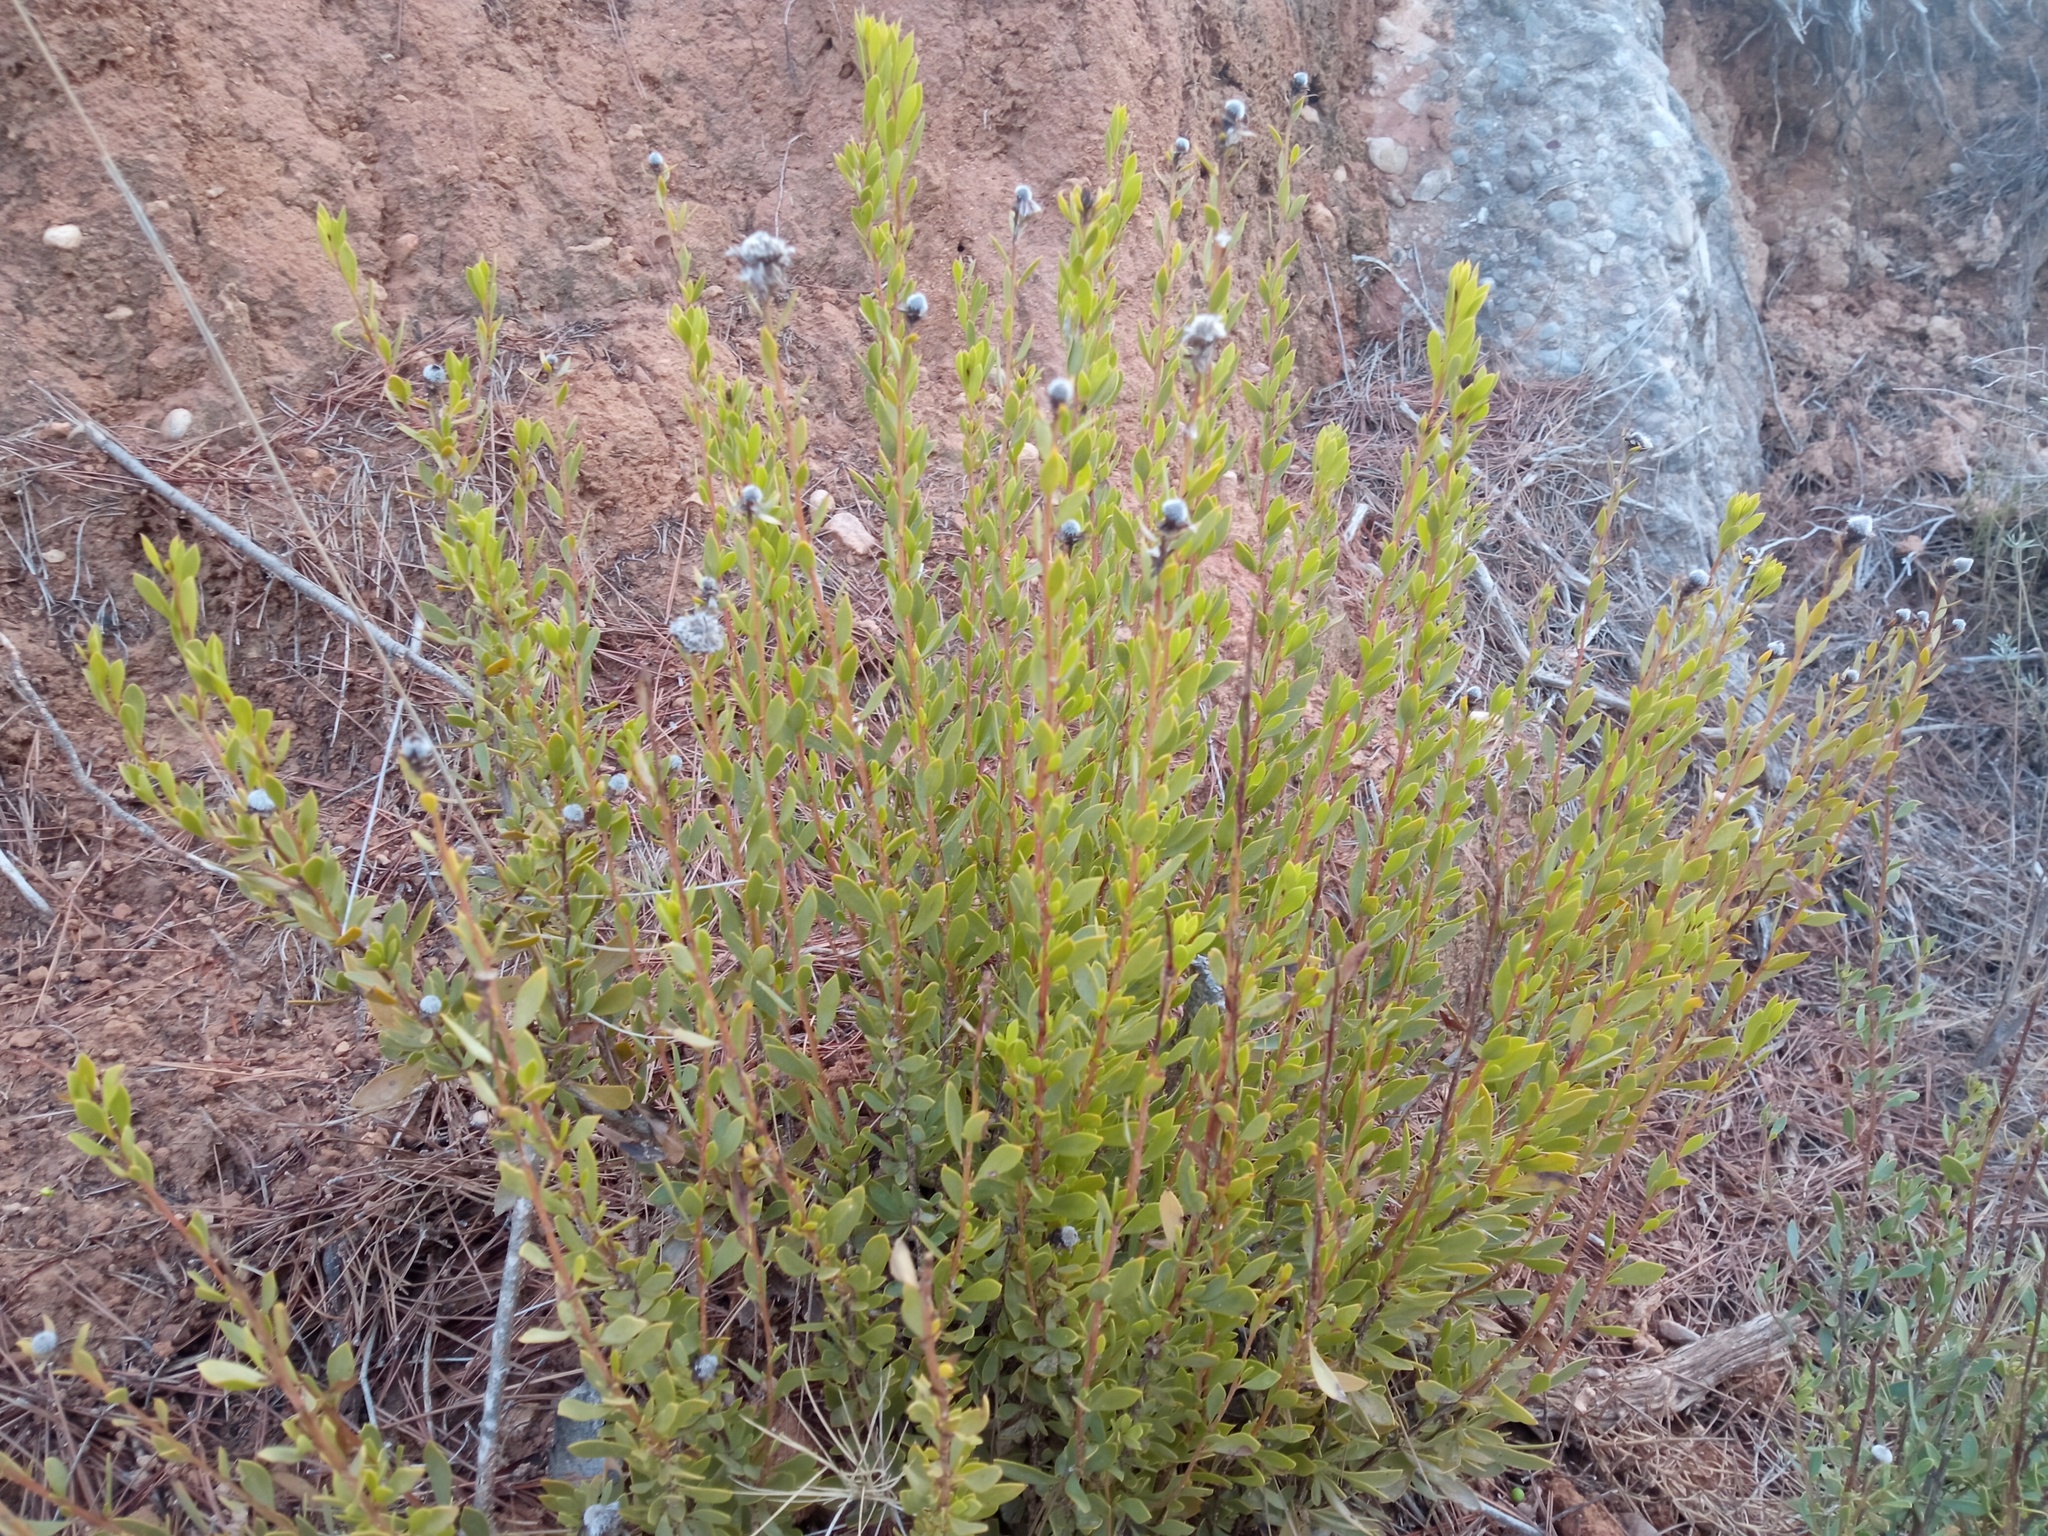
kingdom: Plantae
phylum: Tracheophyta
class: Magnoliopsida
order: Lamiales
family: Plantaginaceae
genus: Globularia
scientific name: Globularia alypum
